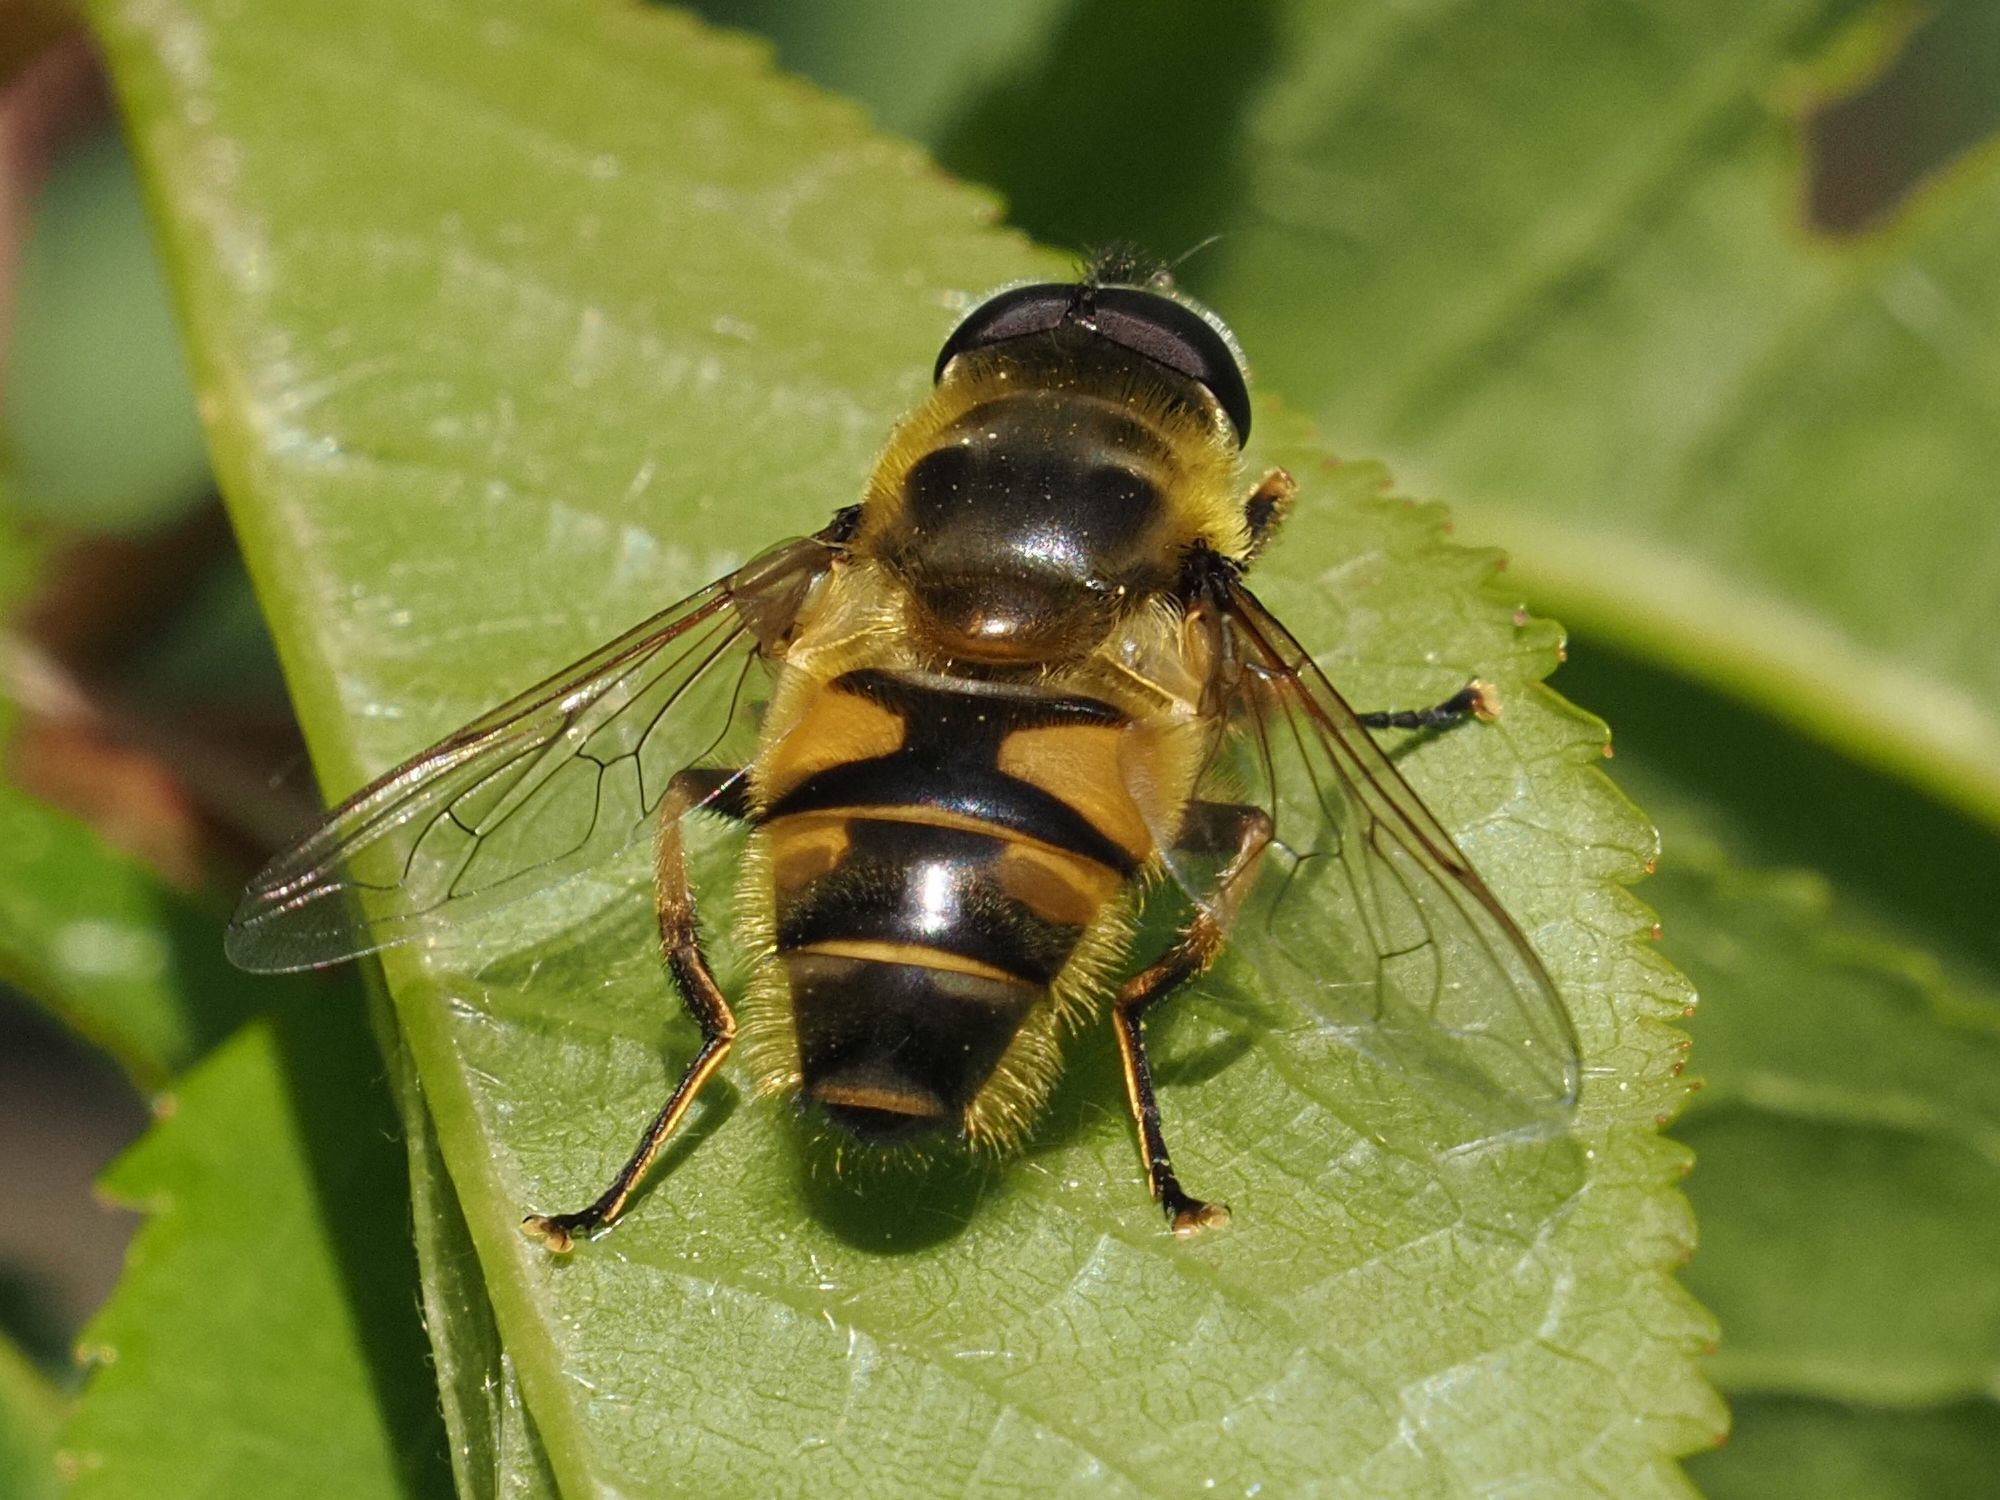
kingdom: Animalia
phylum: Arthropoda
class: Insecta
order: Diptera
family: Syrphidae
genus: Myathropa
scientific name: Myathropa florea
